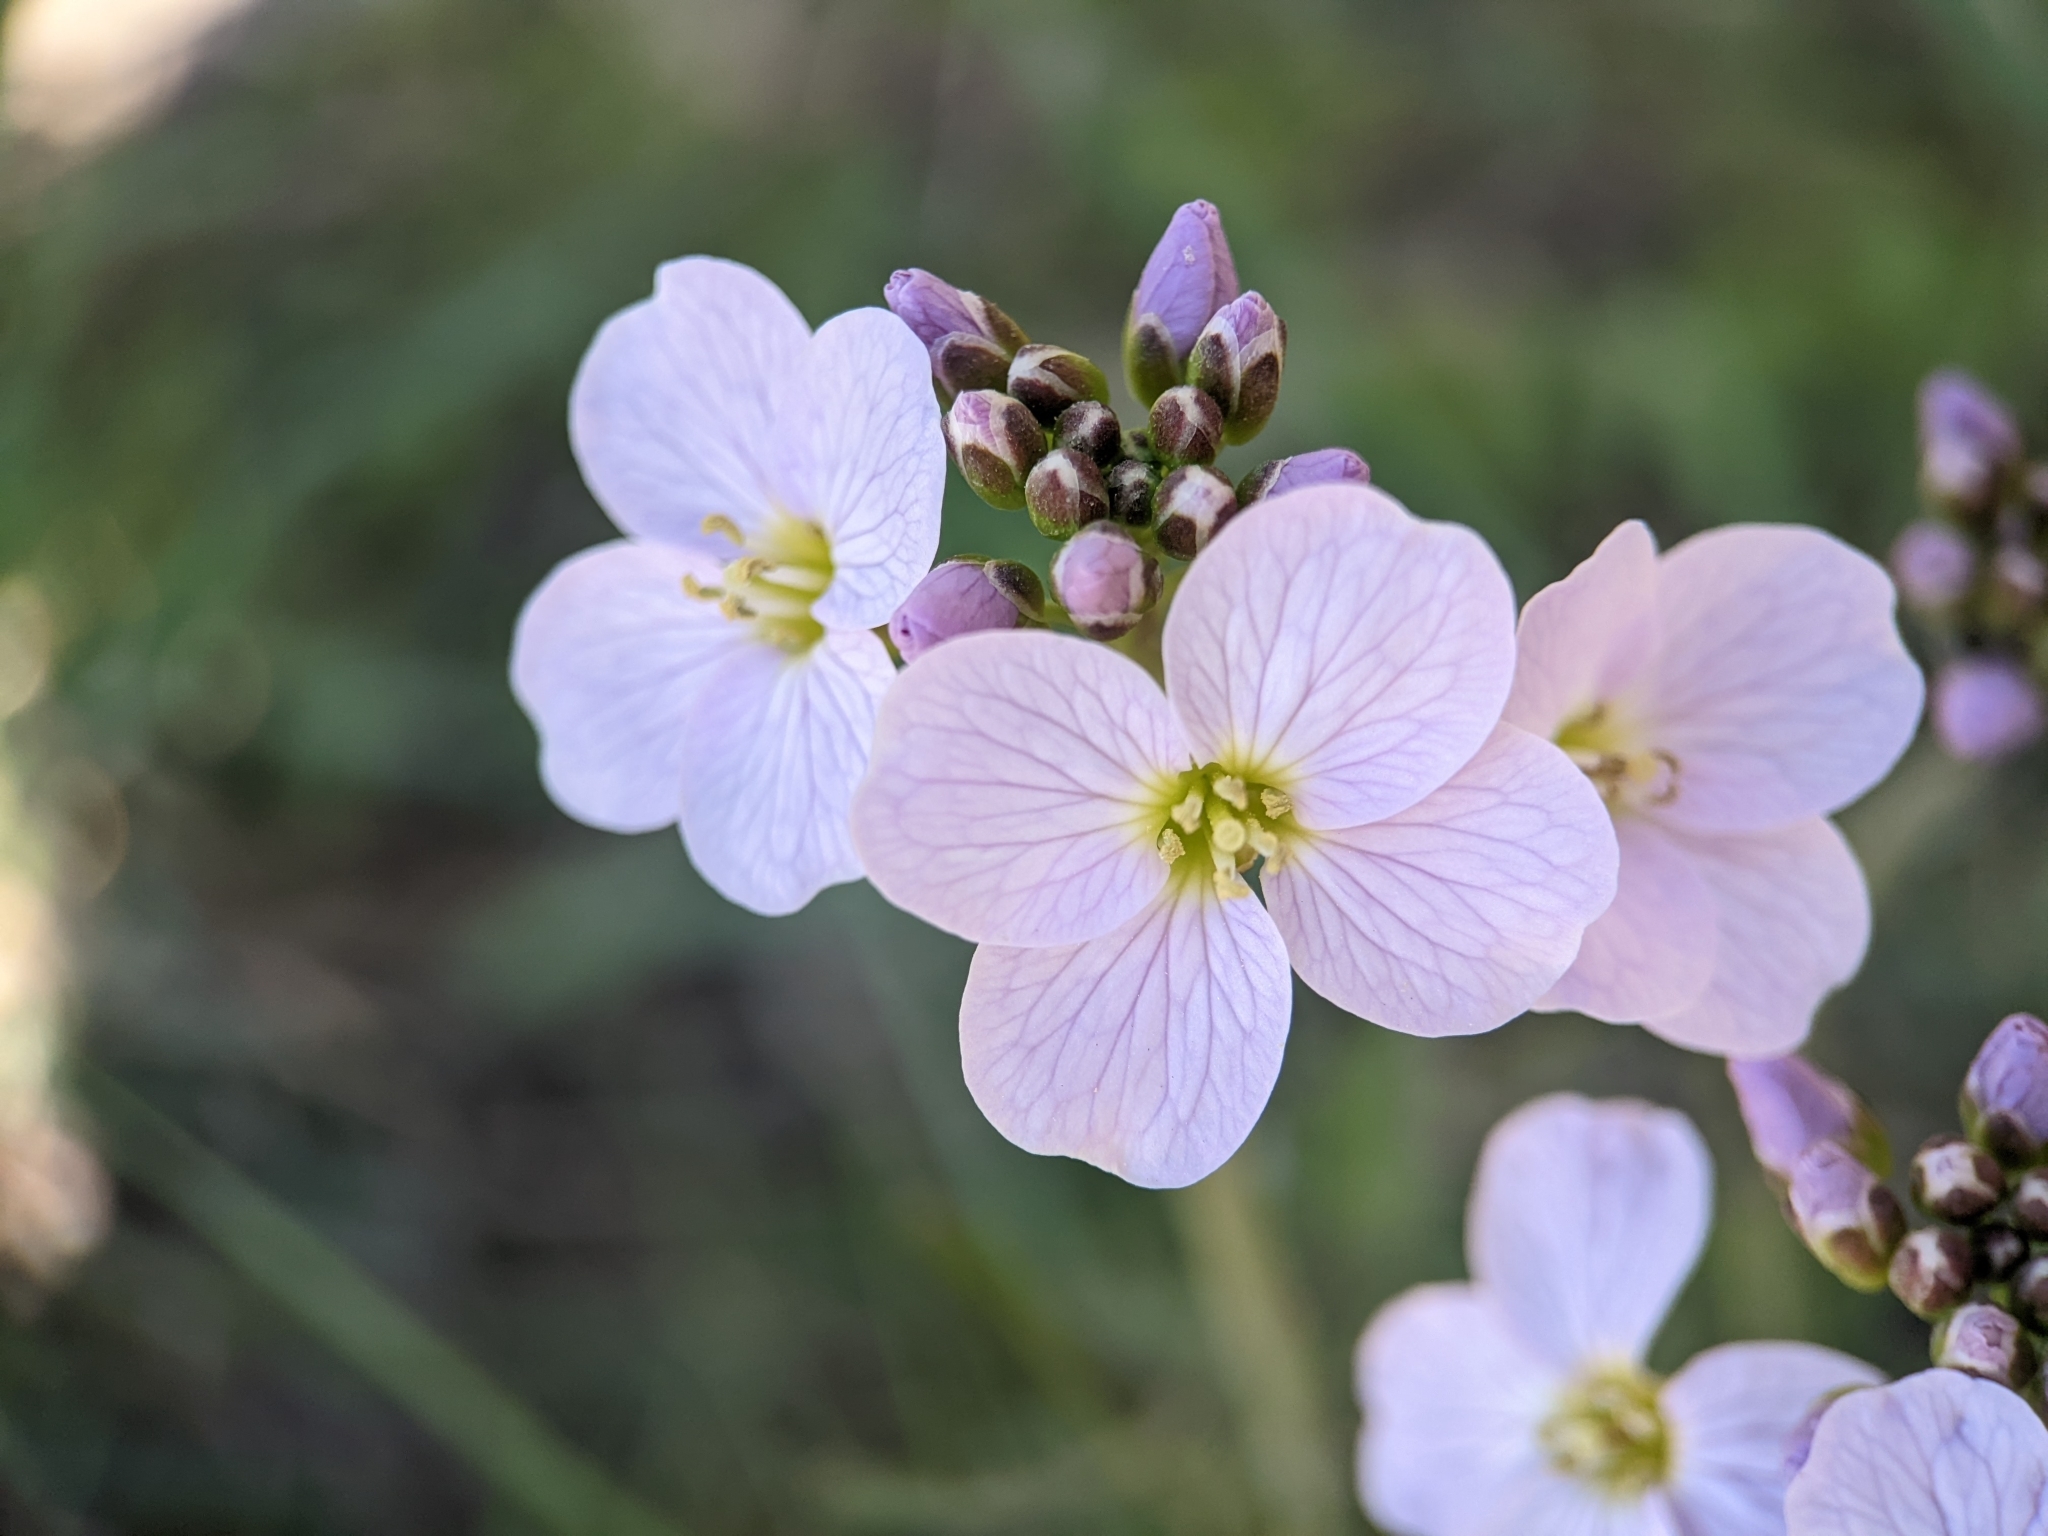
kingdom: Plantae
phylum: Tracheophyta
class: Magnoliopsida
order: Brassicales
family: Brassicaceae
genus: Cardamine
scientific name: Cardamine pratensis
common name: Cuckoo flower
